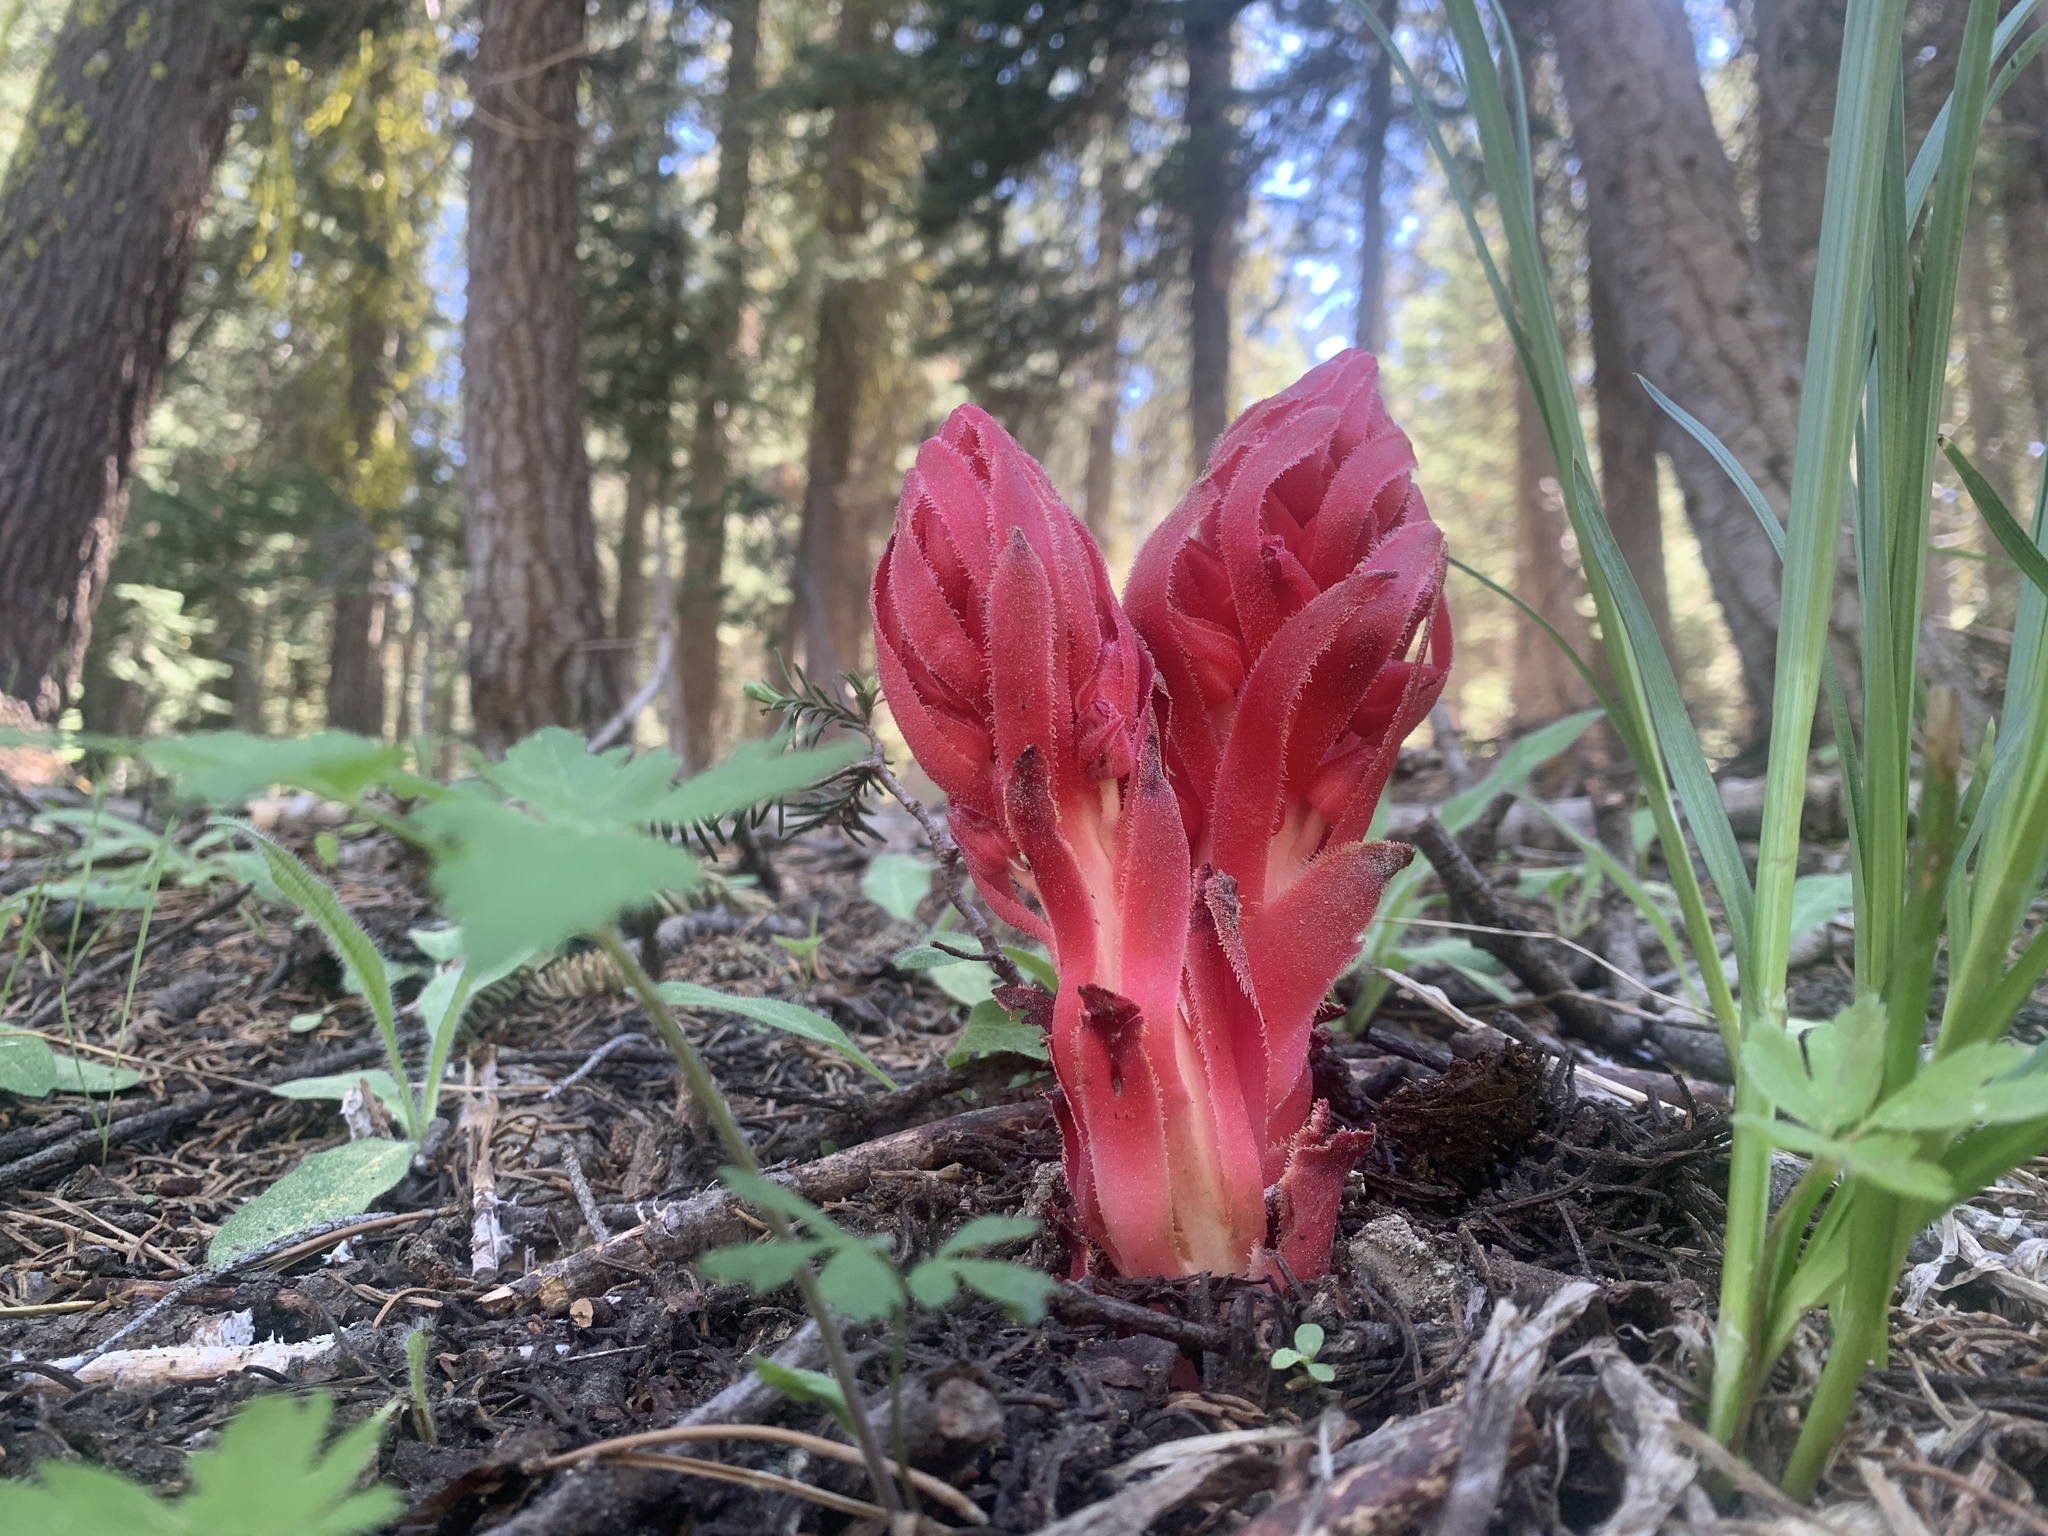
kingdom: Plantae
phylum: Tracheophyta
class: Magnoliopsida
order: Ericales
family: Ericaceae
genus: Sarcodes
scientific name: Sarcodes sanguinea
